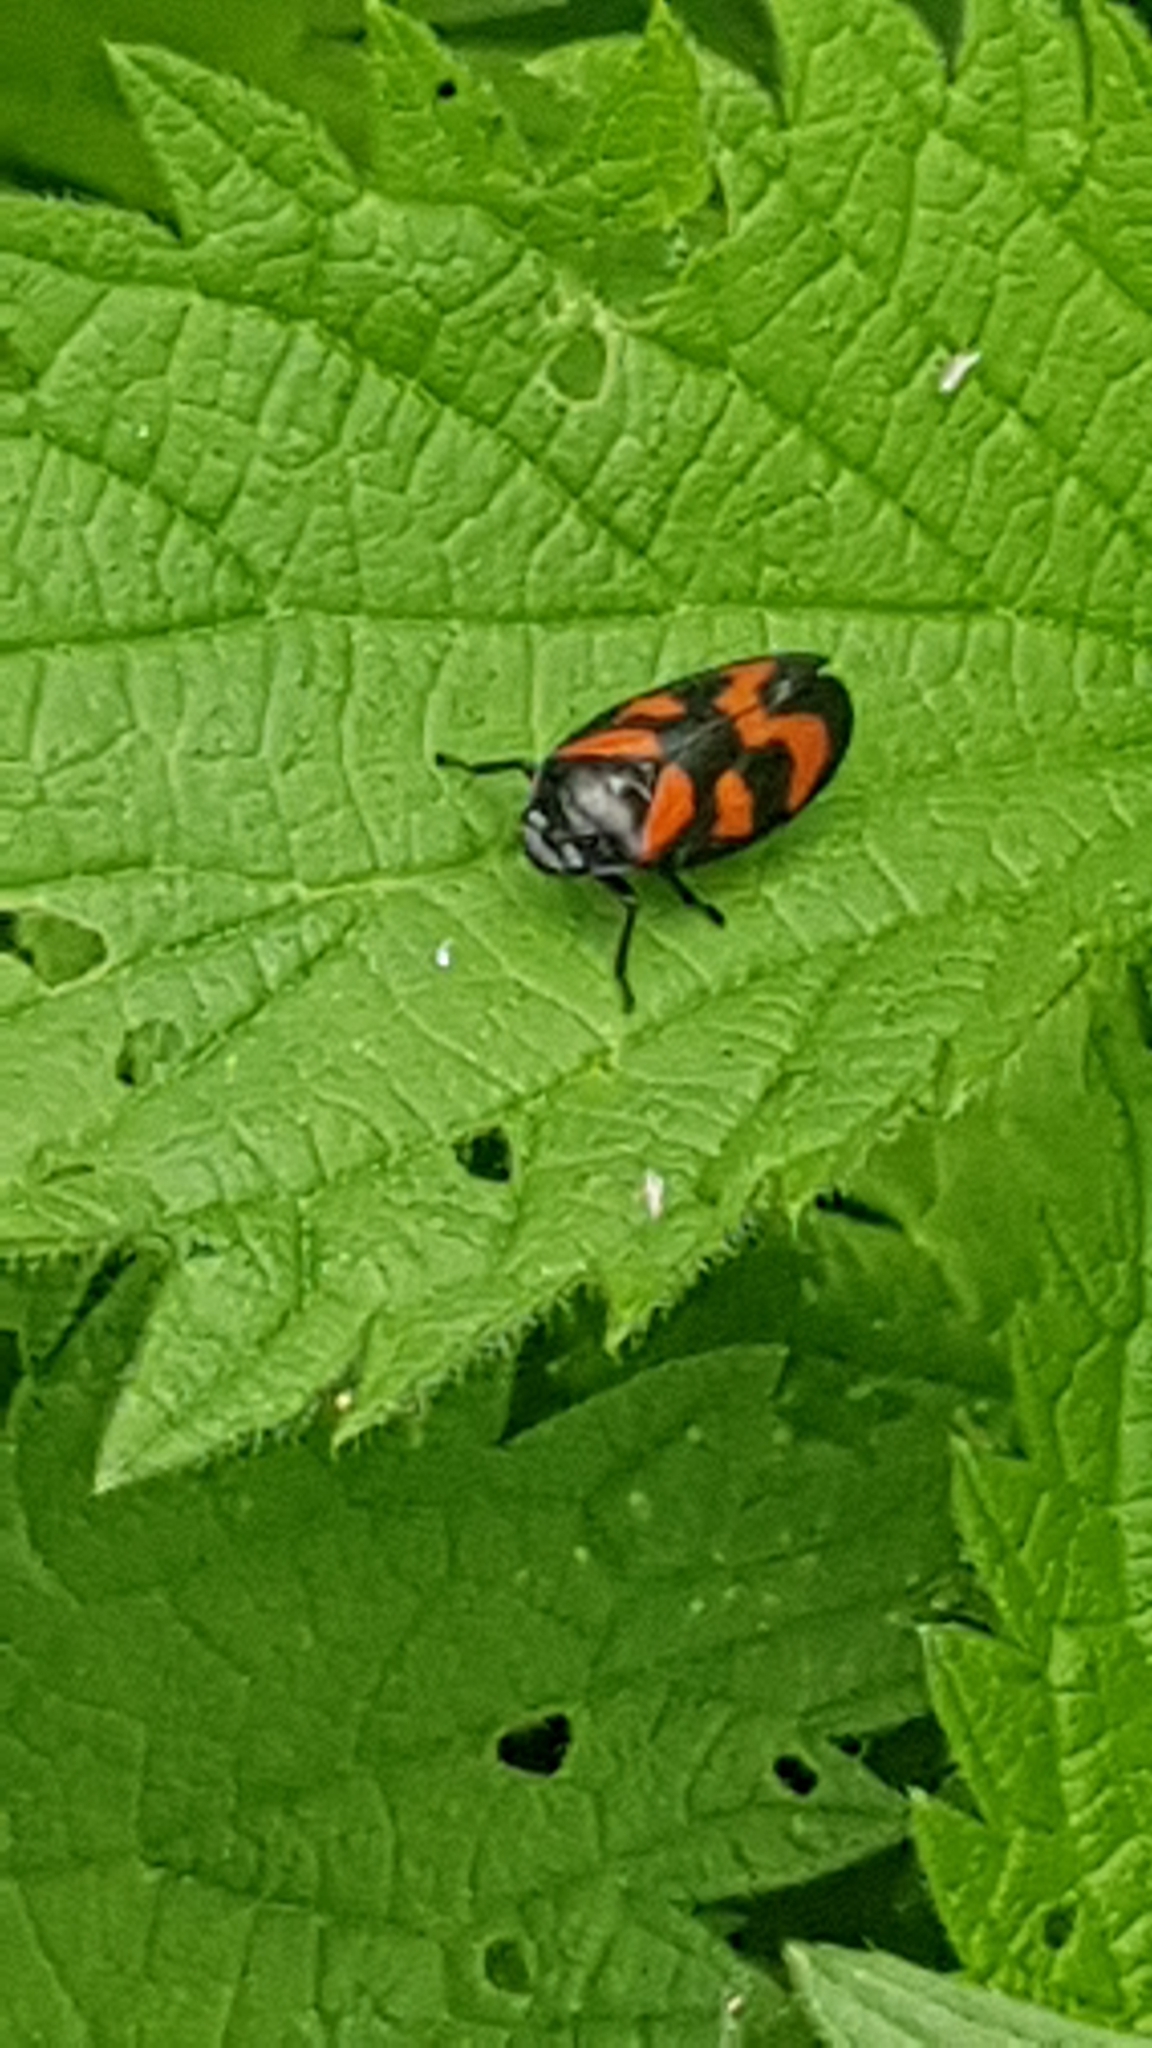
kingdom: Animalia
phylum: Arthropoda
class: Insecta
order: Hemiptera
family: Cercopidae
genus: Cercopis
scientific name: Cercopis vulnerata
